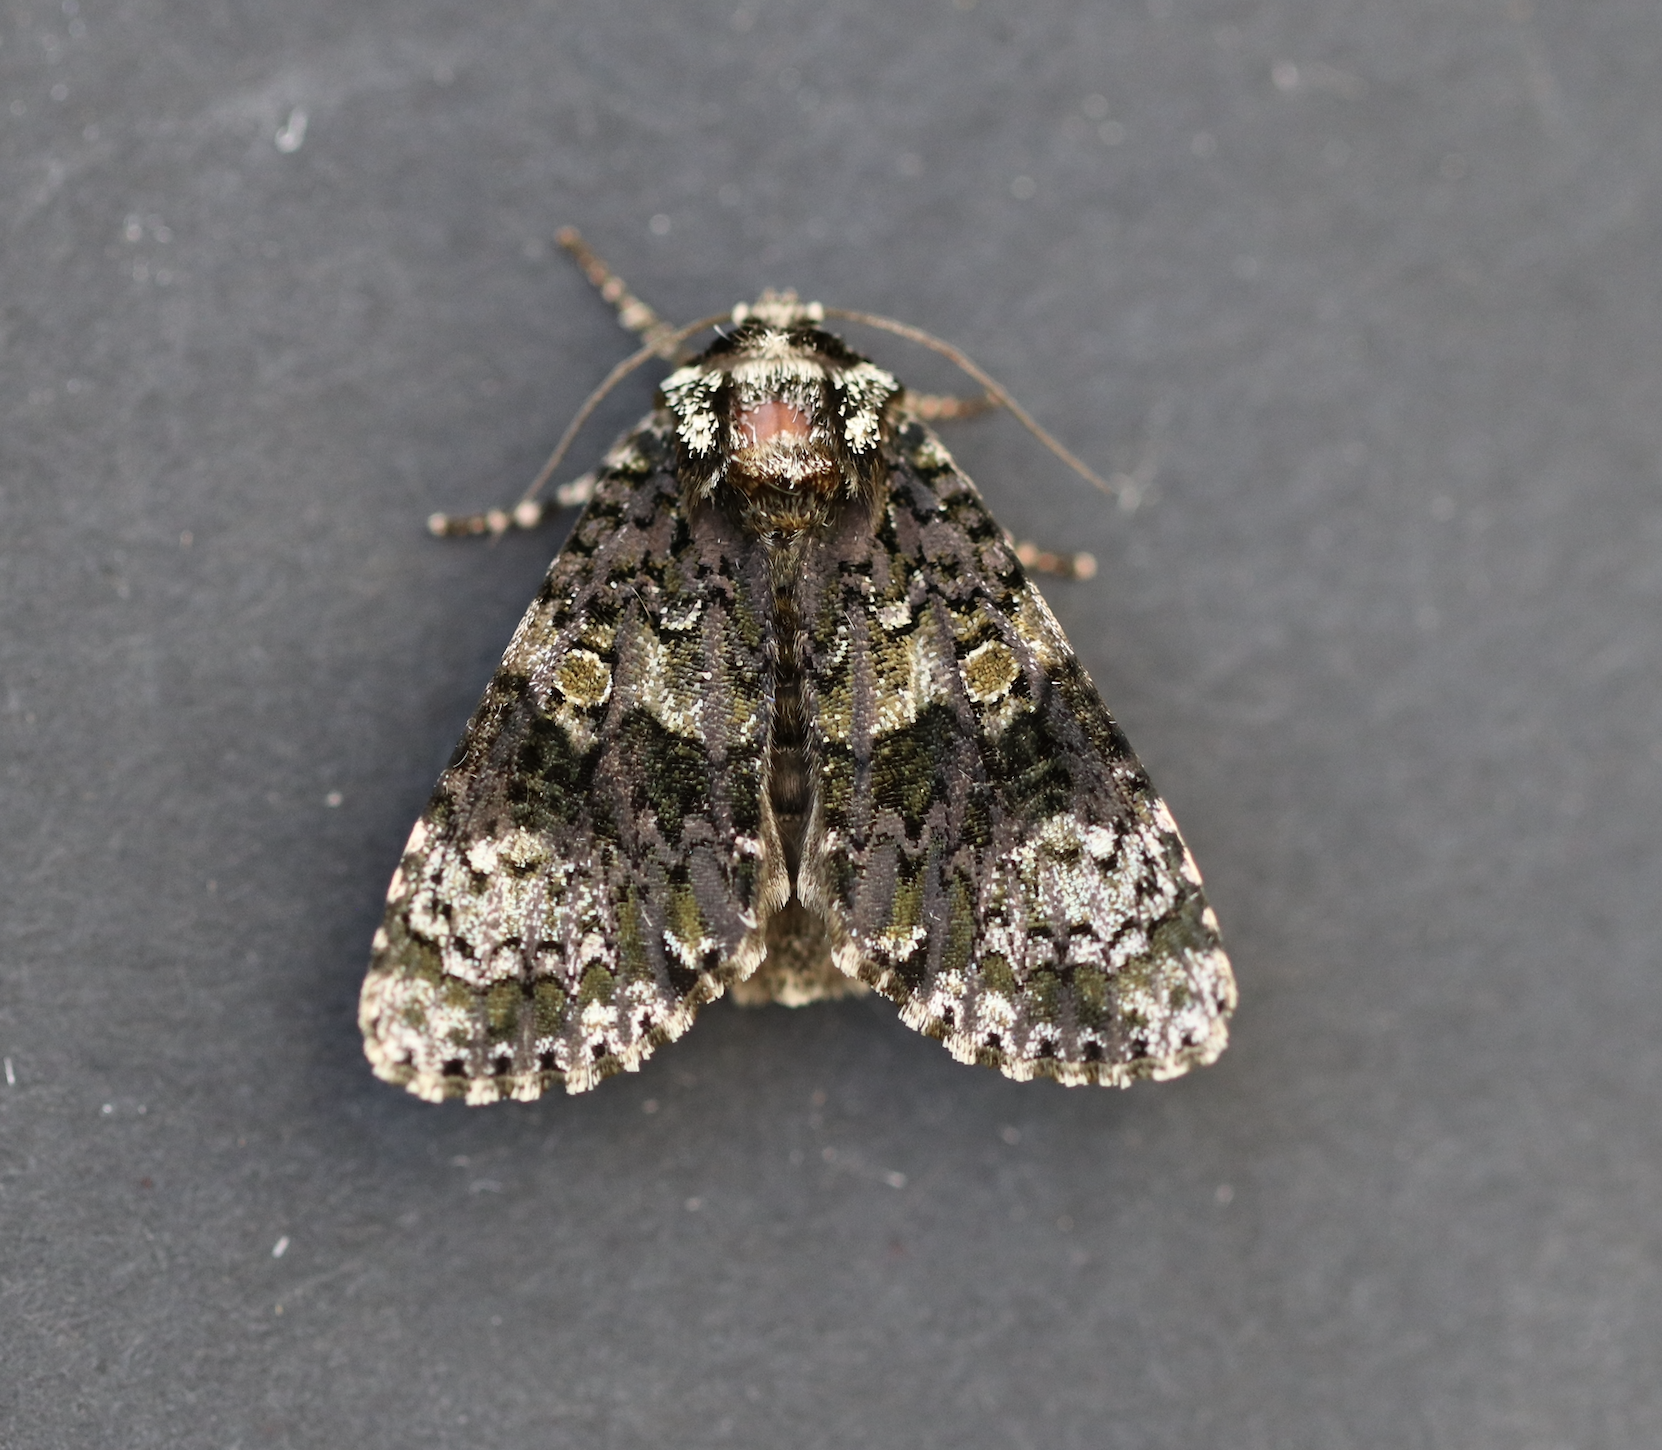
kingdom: Animalia
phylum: Arthropoda
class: Insecta
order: Lepidoptera
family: Noctuidae
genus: Craniophora
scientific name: Craniophora ligustri
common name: Coronet
